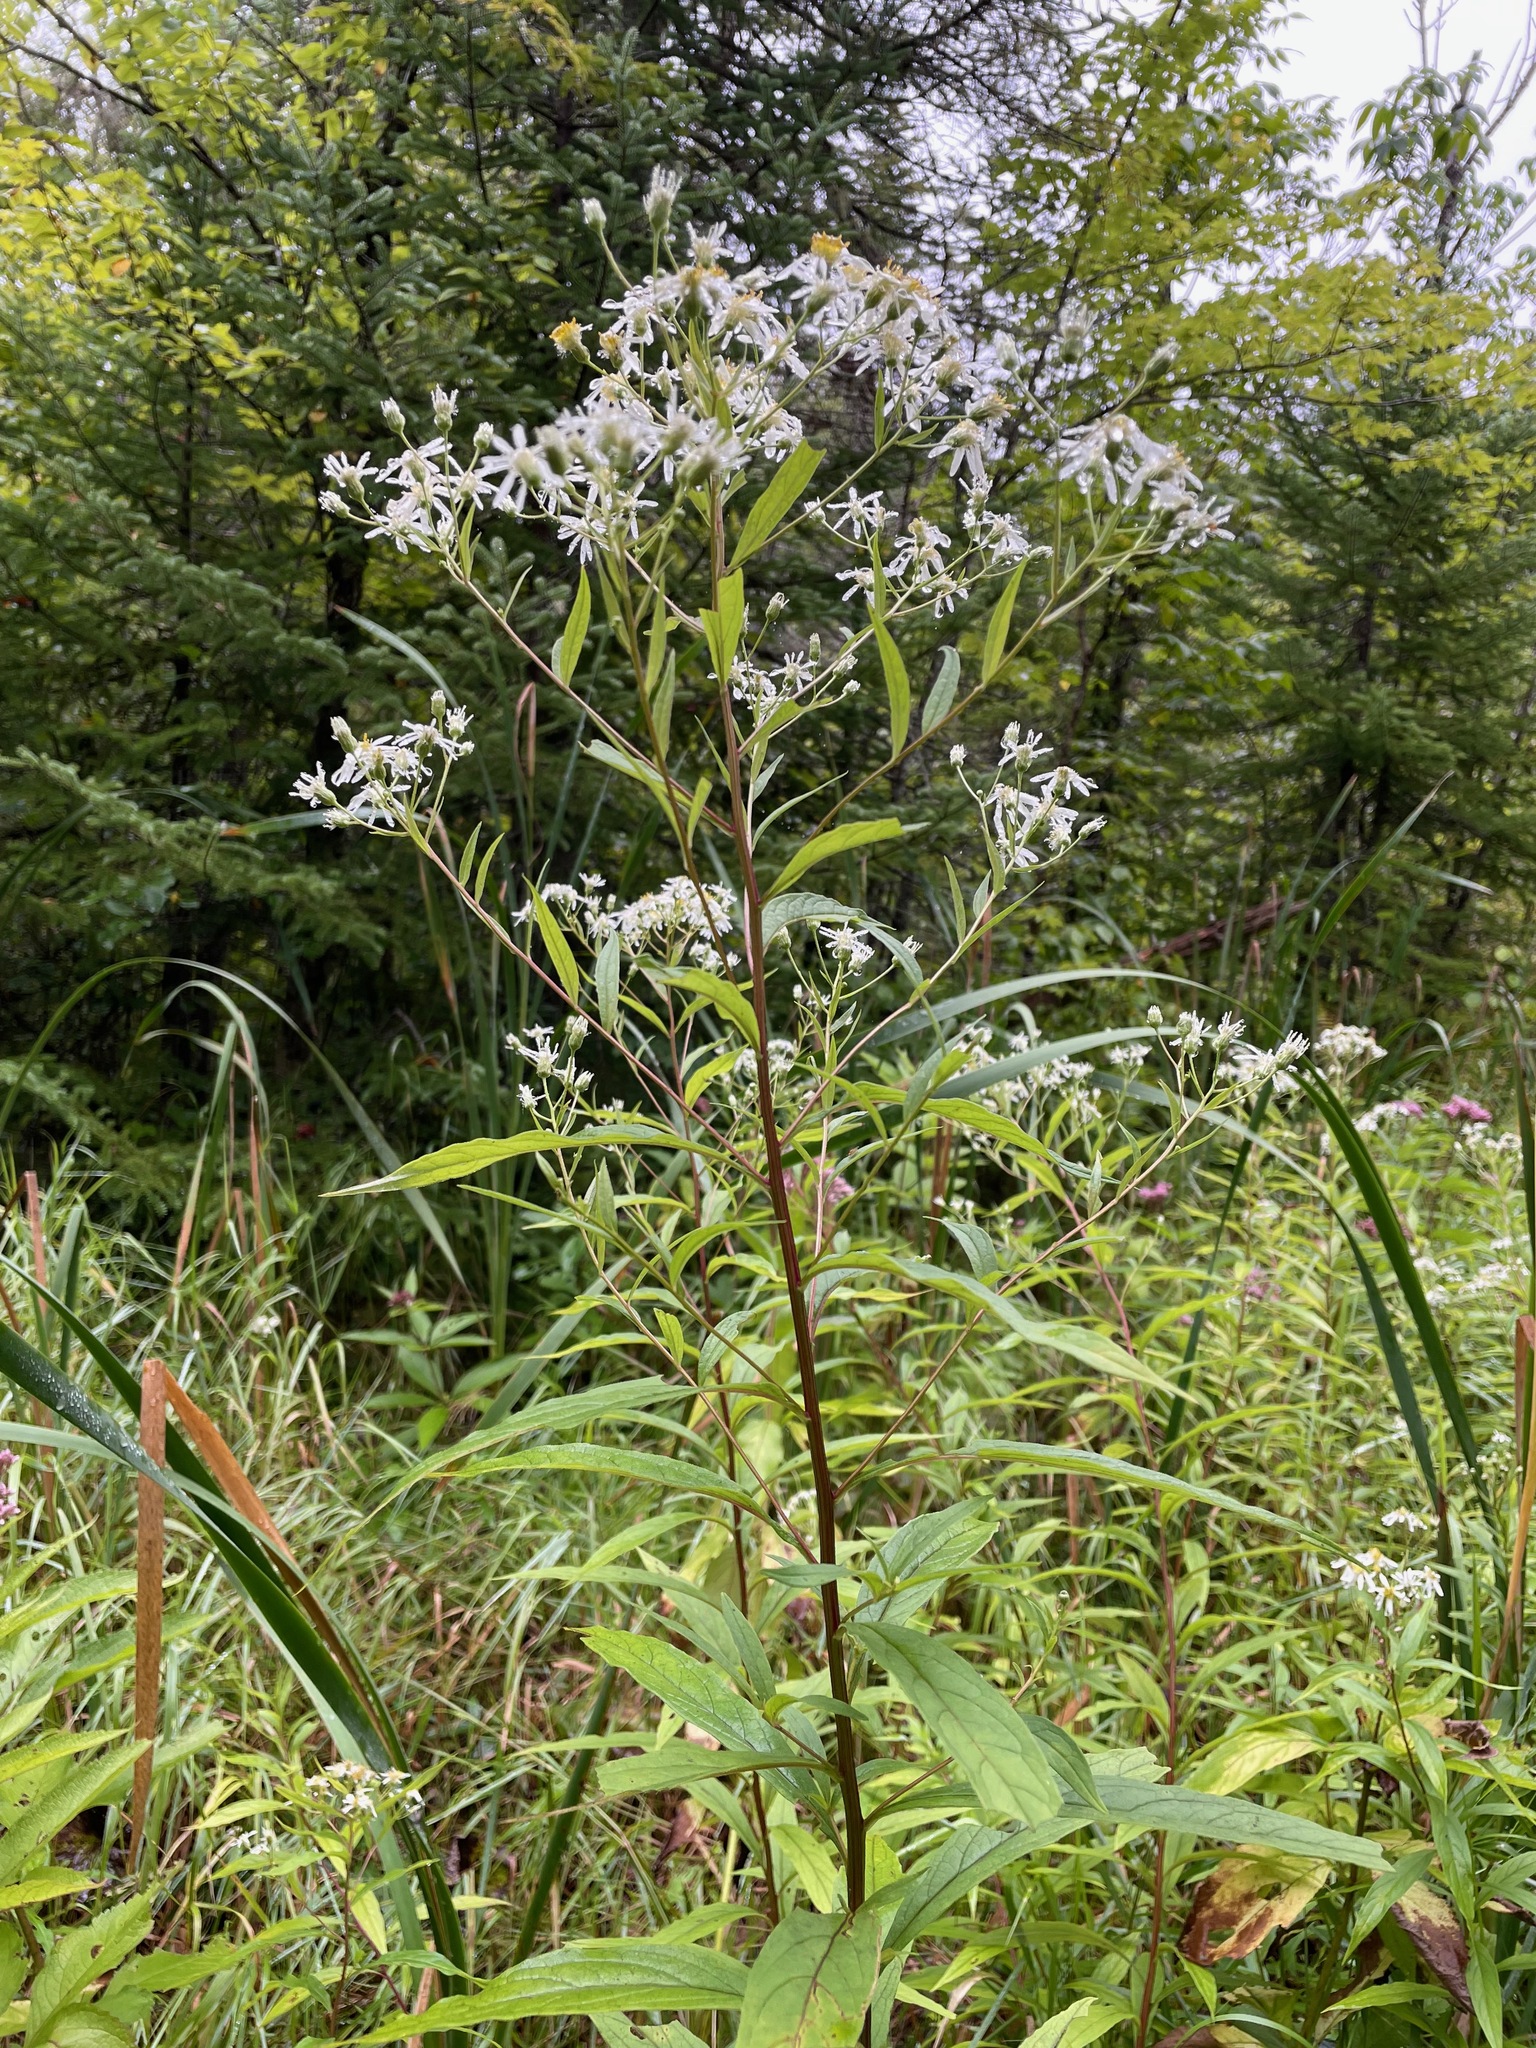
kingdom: Plantae
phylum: Tracheophyta
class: Magnoliopsida
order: Asterales
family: Asteraceae
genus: Doellingeria
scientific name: Doellingeria umbellata
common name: Flat-top white aster
